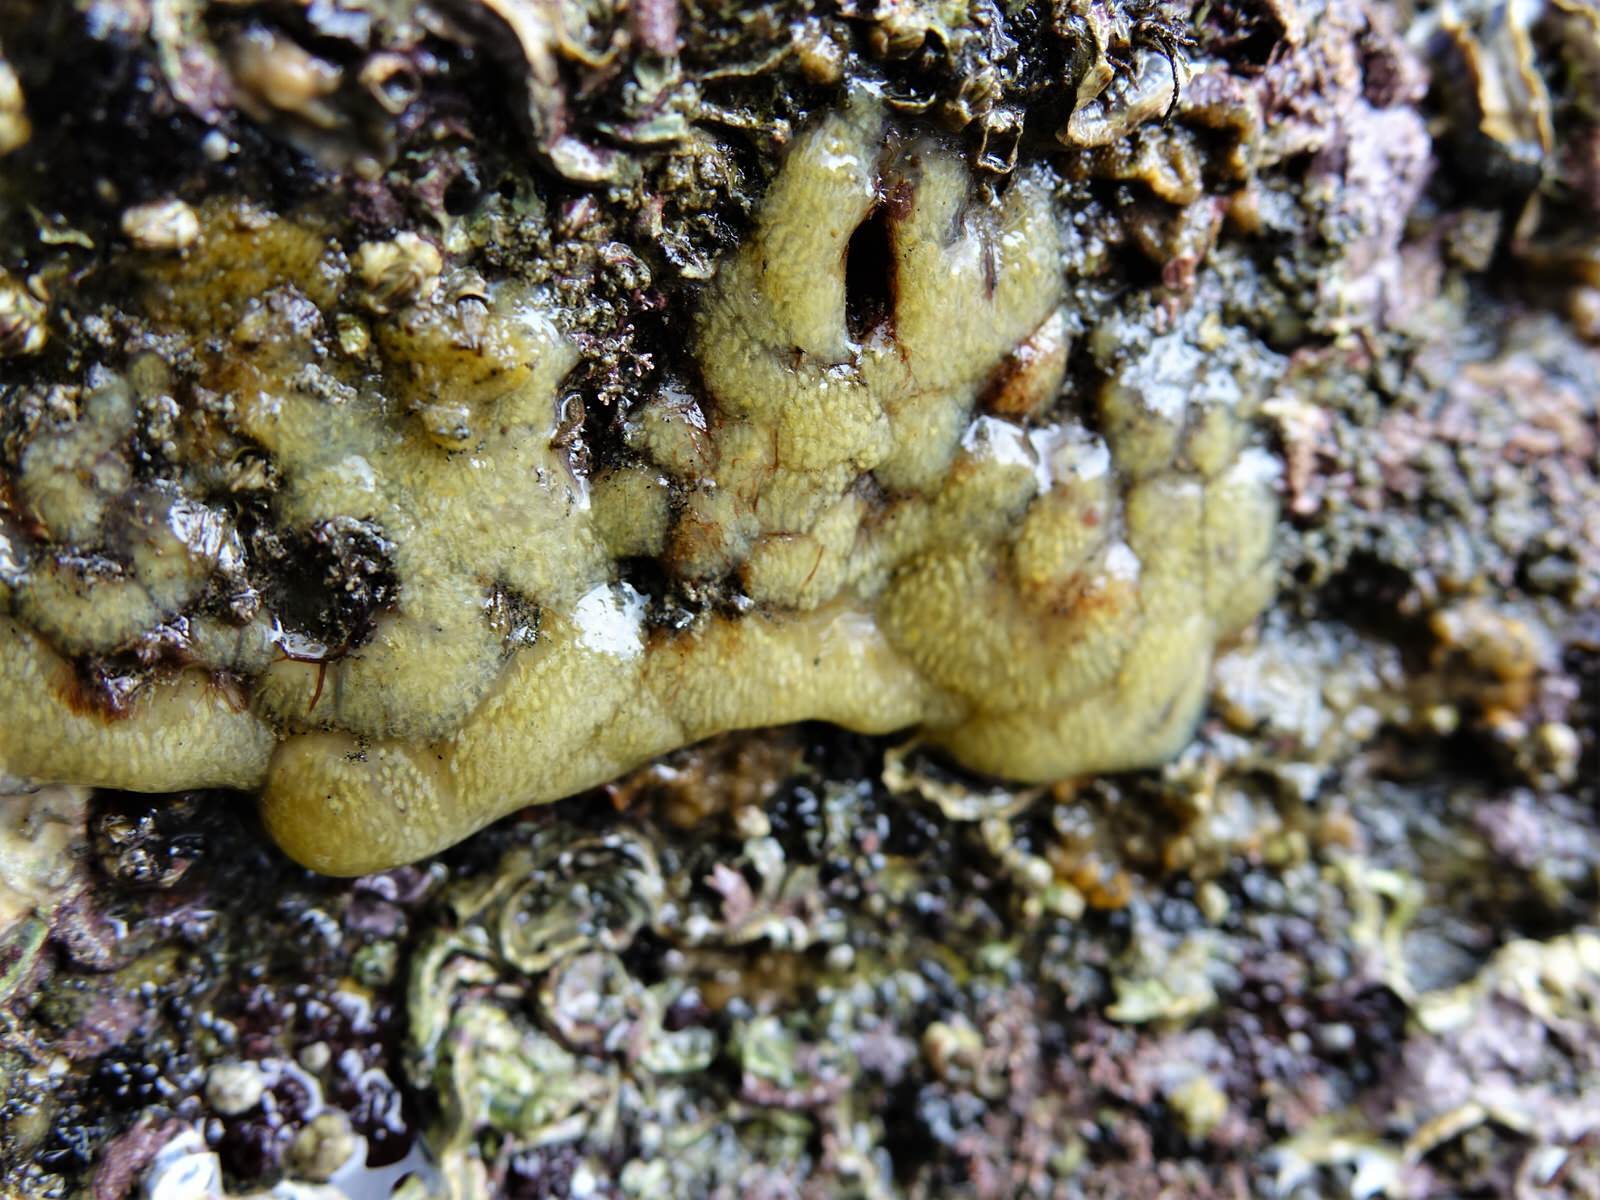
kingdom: Animalia
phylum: Chordata
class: Ascidiacea
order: Aplousobranchia
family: Pseudodistomidae
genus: Pseudodistoma
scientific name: Pseudodistoma opacum
